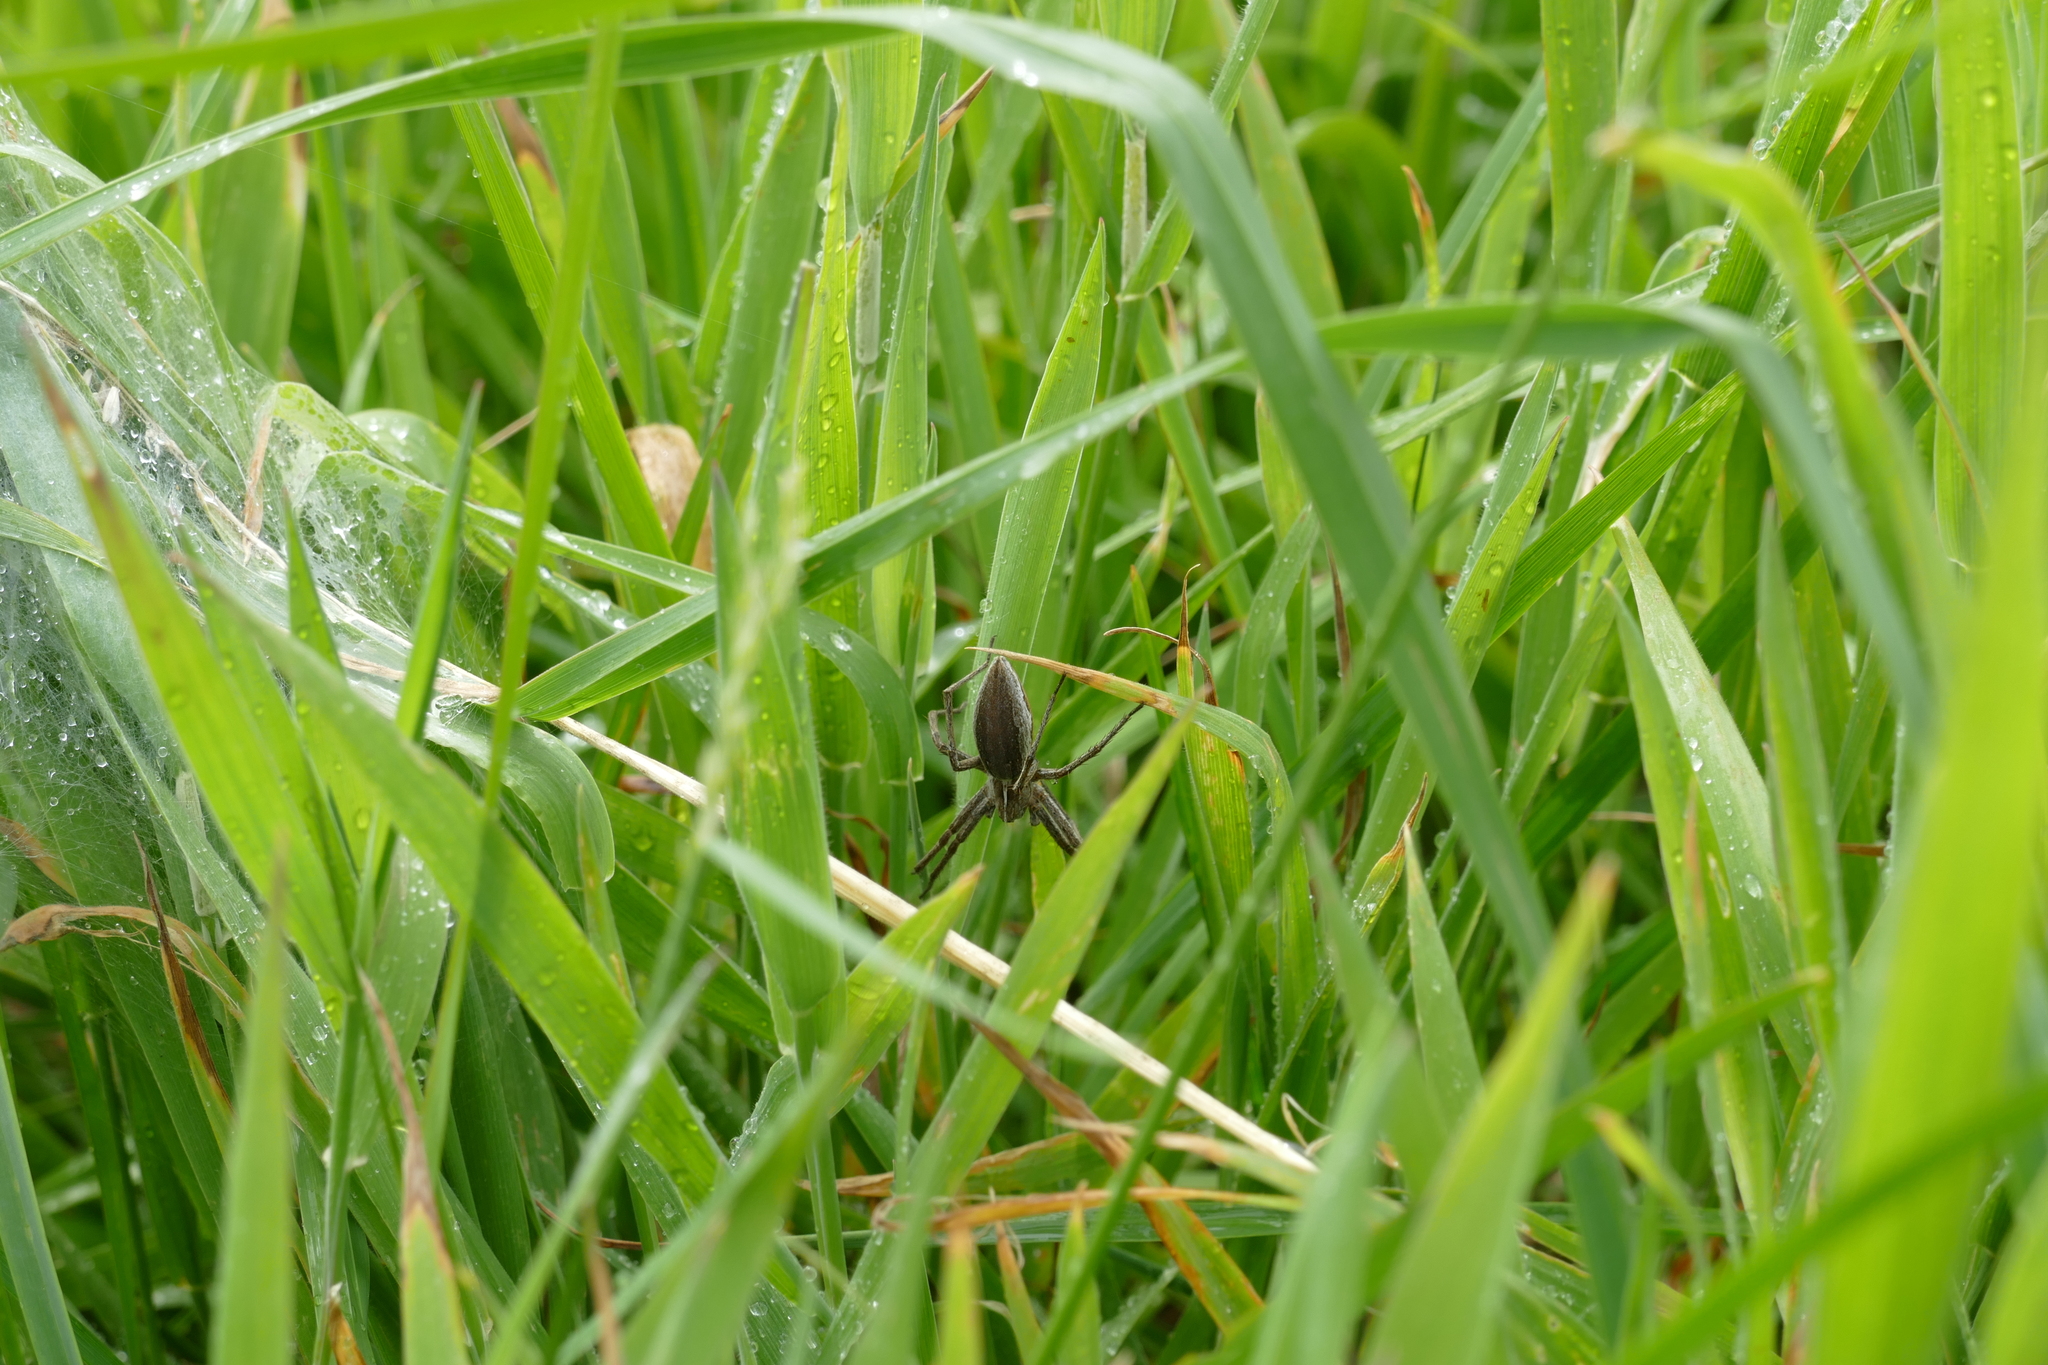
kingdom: Animalia
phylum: Arthropoda
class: Arachnida
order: Araneae
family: Pisauridae
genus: Pisaura
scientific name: Pisaura mirabilis
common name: Tent spider
